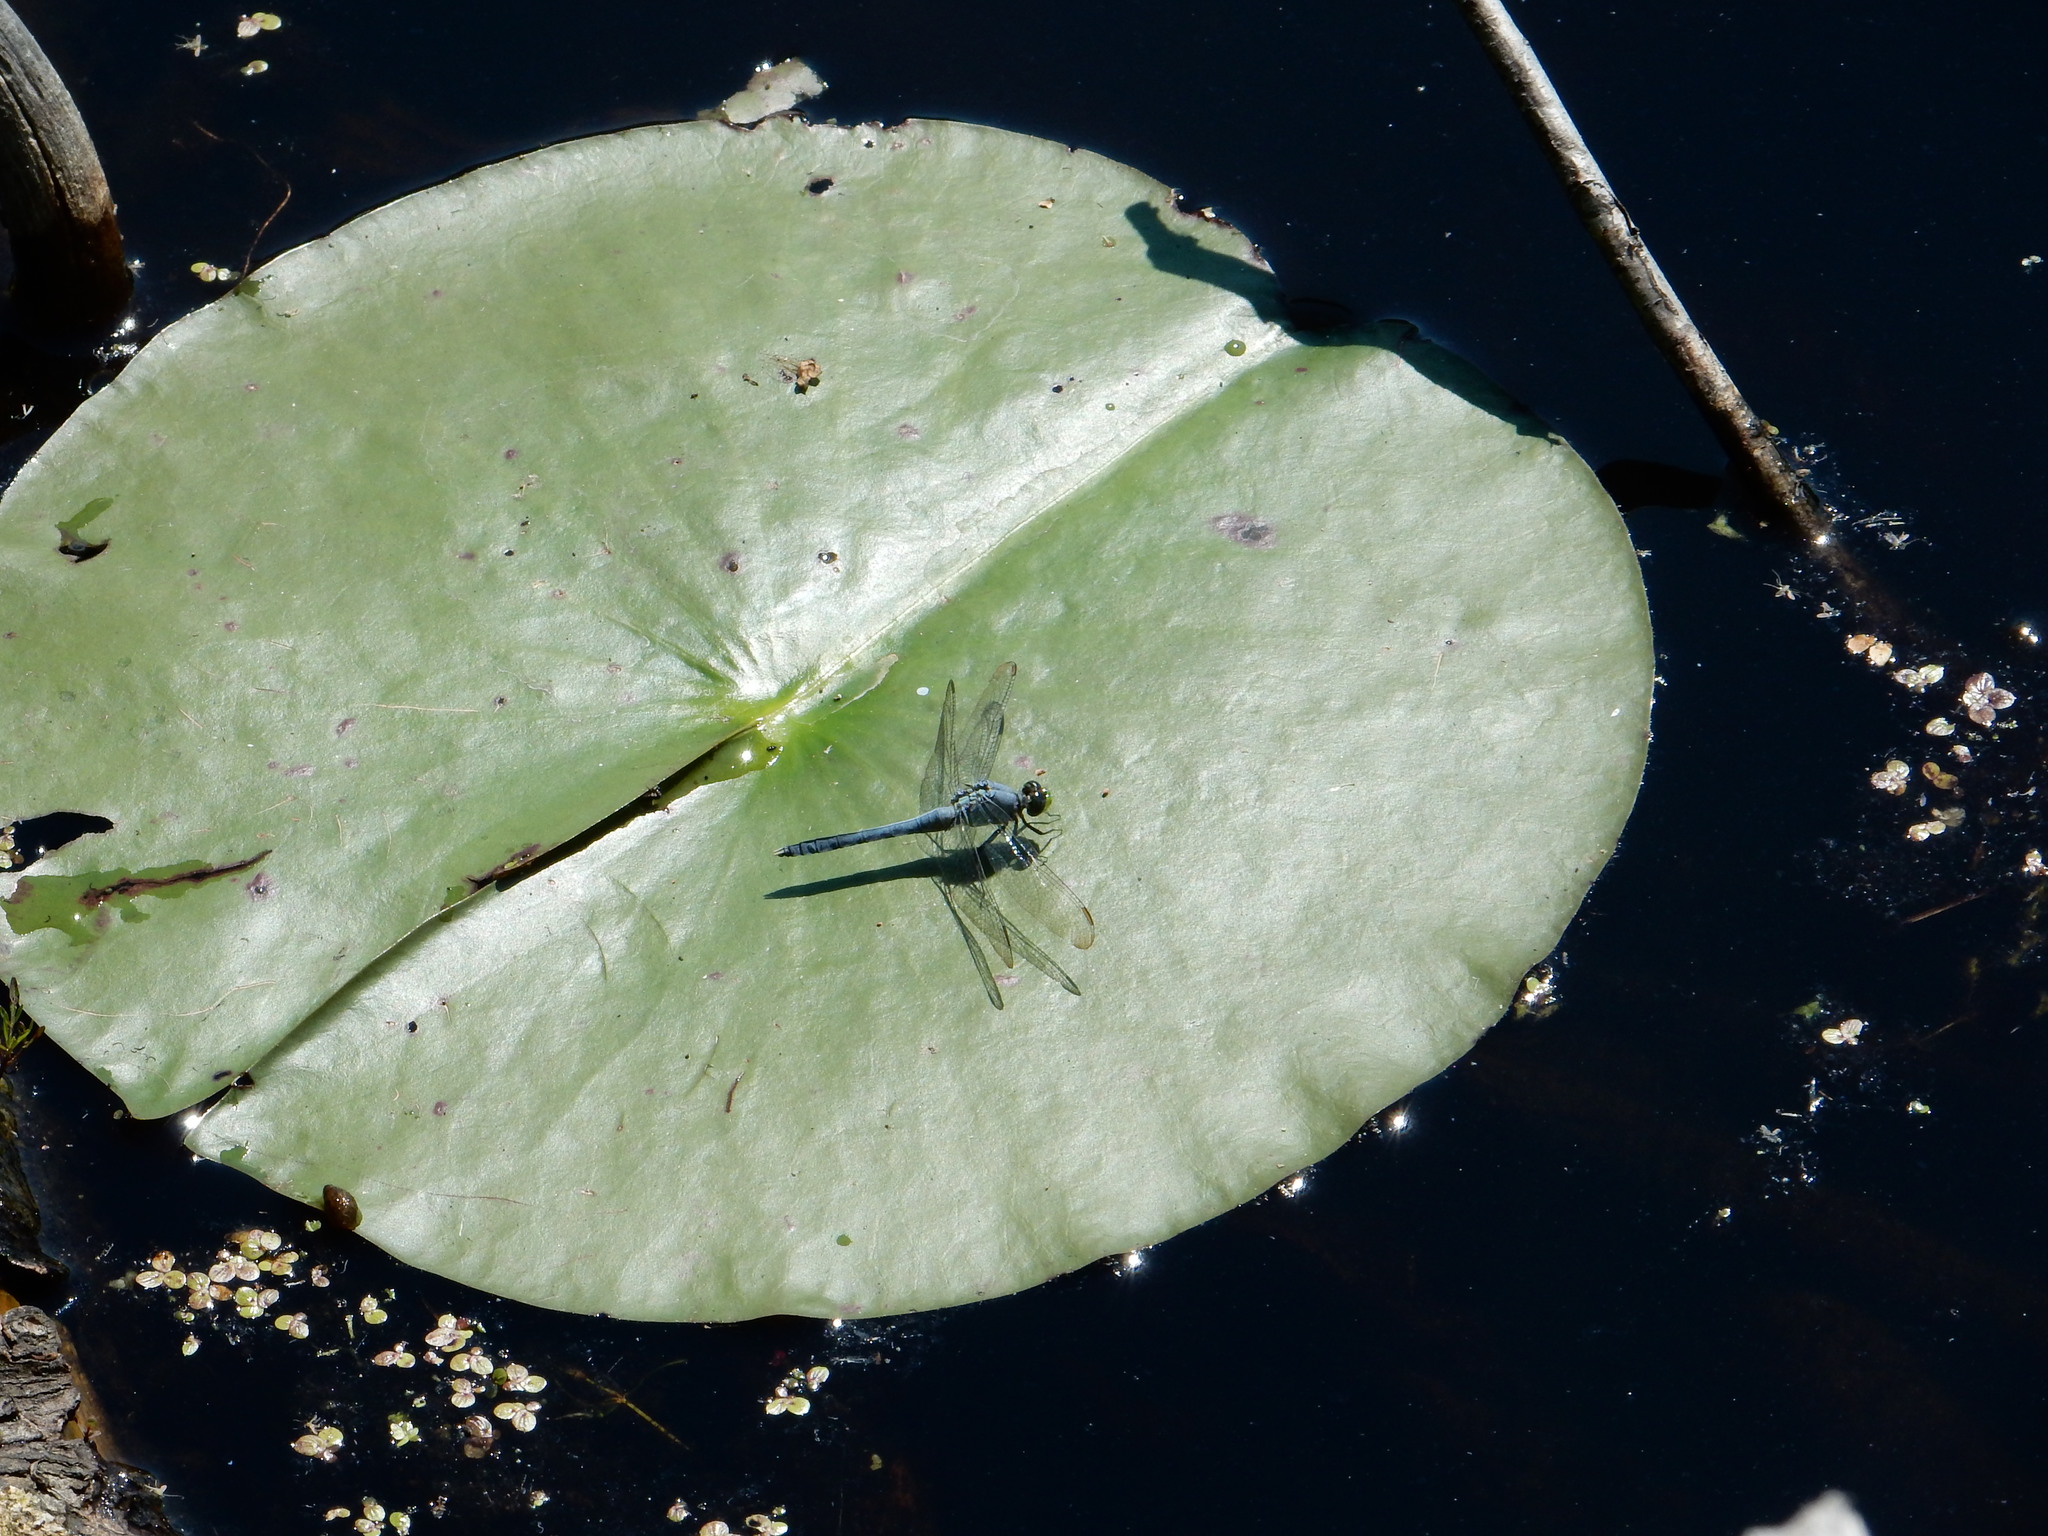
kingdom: Animalia
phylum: Arthropoda
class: Insecta
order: Odonata
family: Libellulidae
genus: Erythemis
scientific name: Erythemis simplicicollis
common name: Eastern pondhawk
